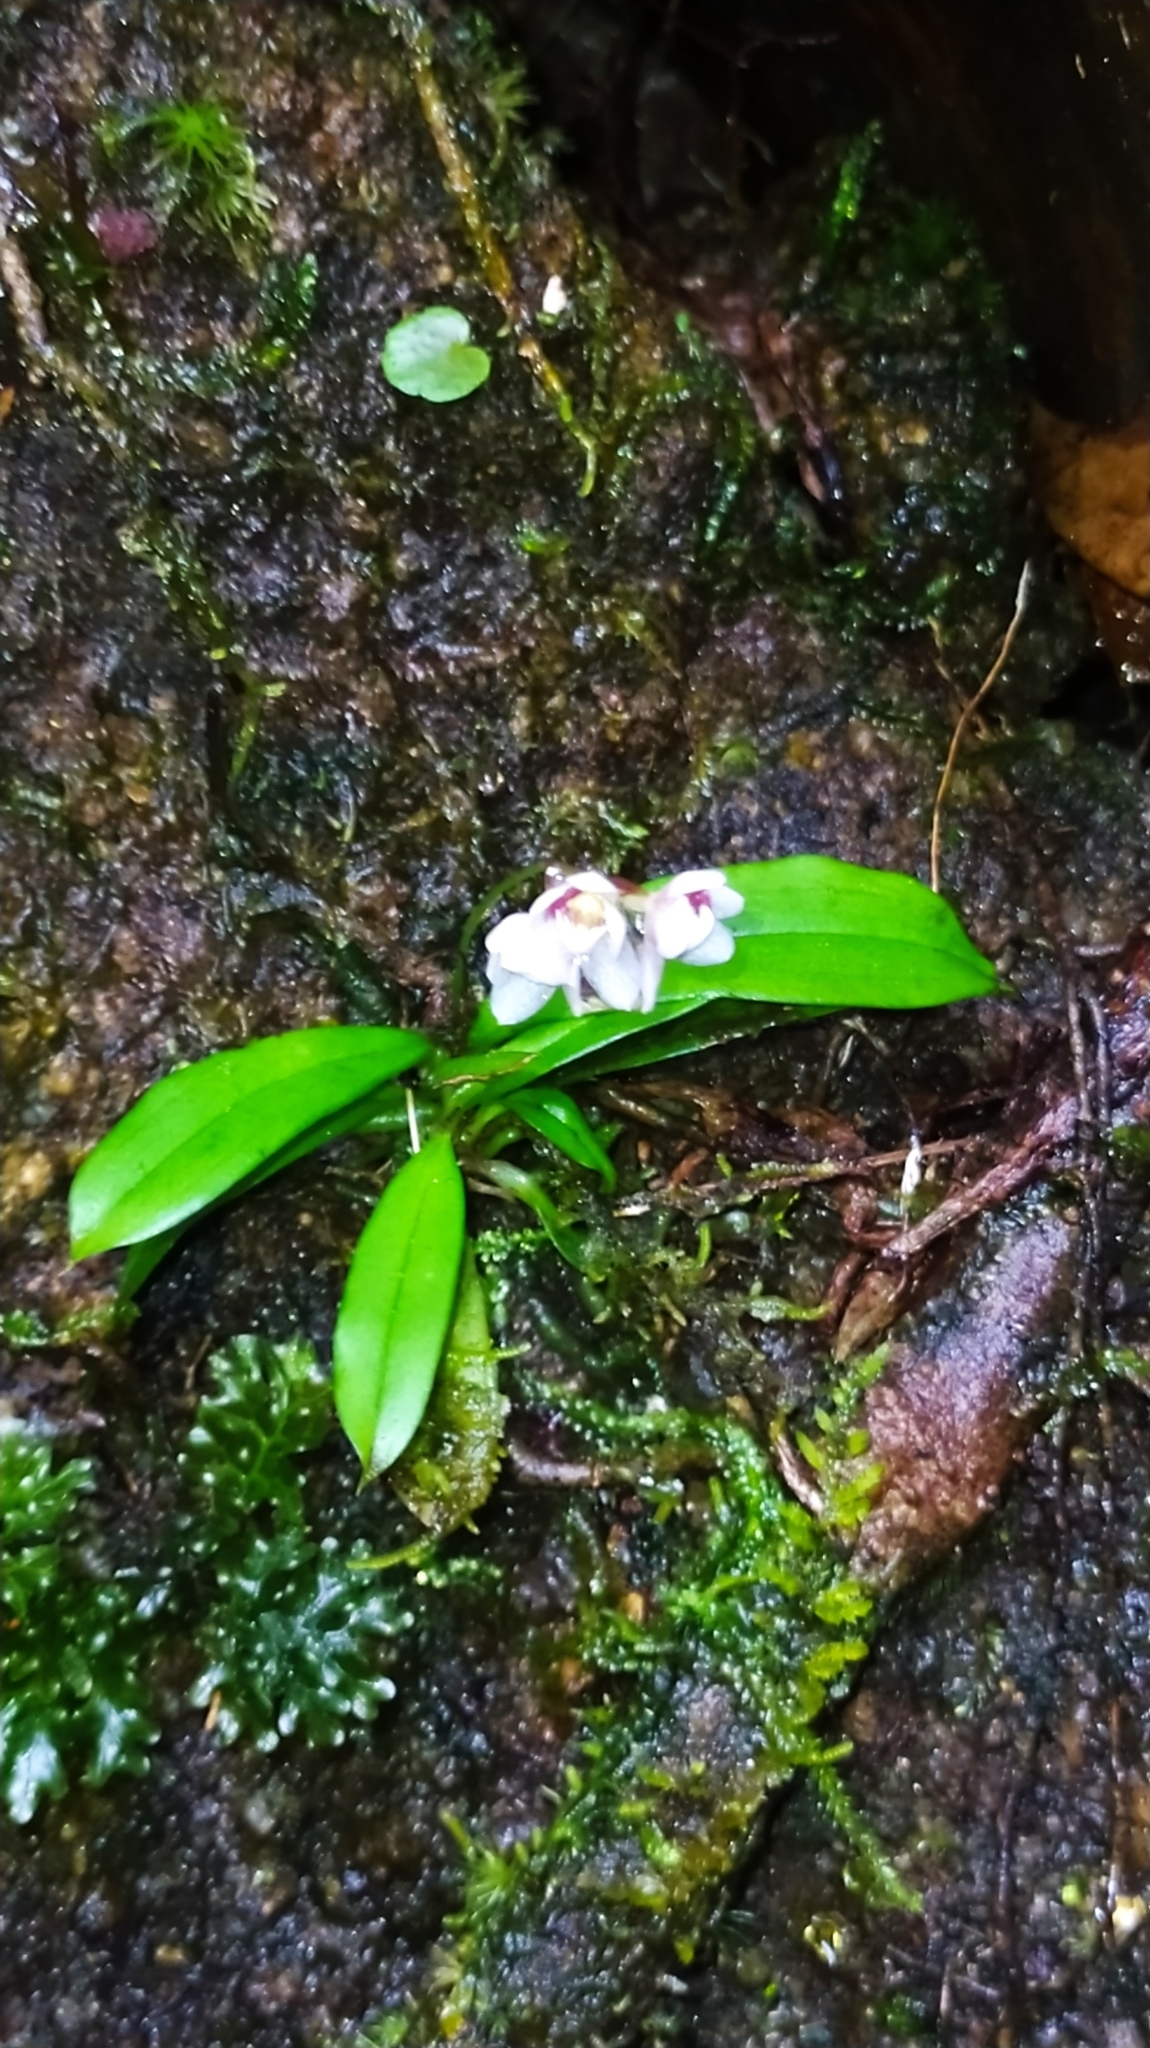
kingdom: Plantae
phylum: Tracheophyta
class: Liliopsida
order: Asparagales
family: Orchidaceae
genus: Cheiradenia
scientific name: Cheiradenia cuspidata
